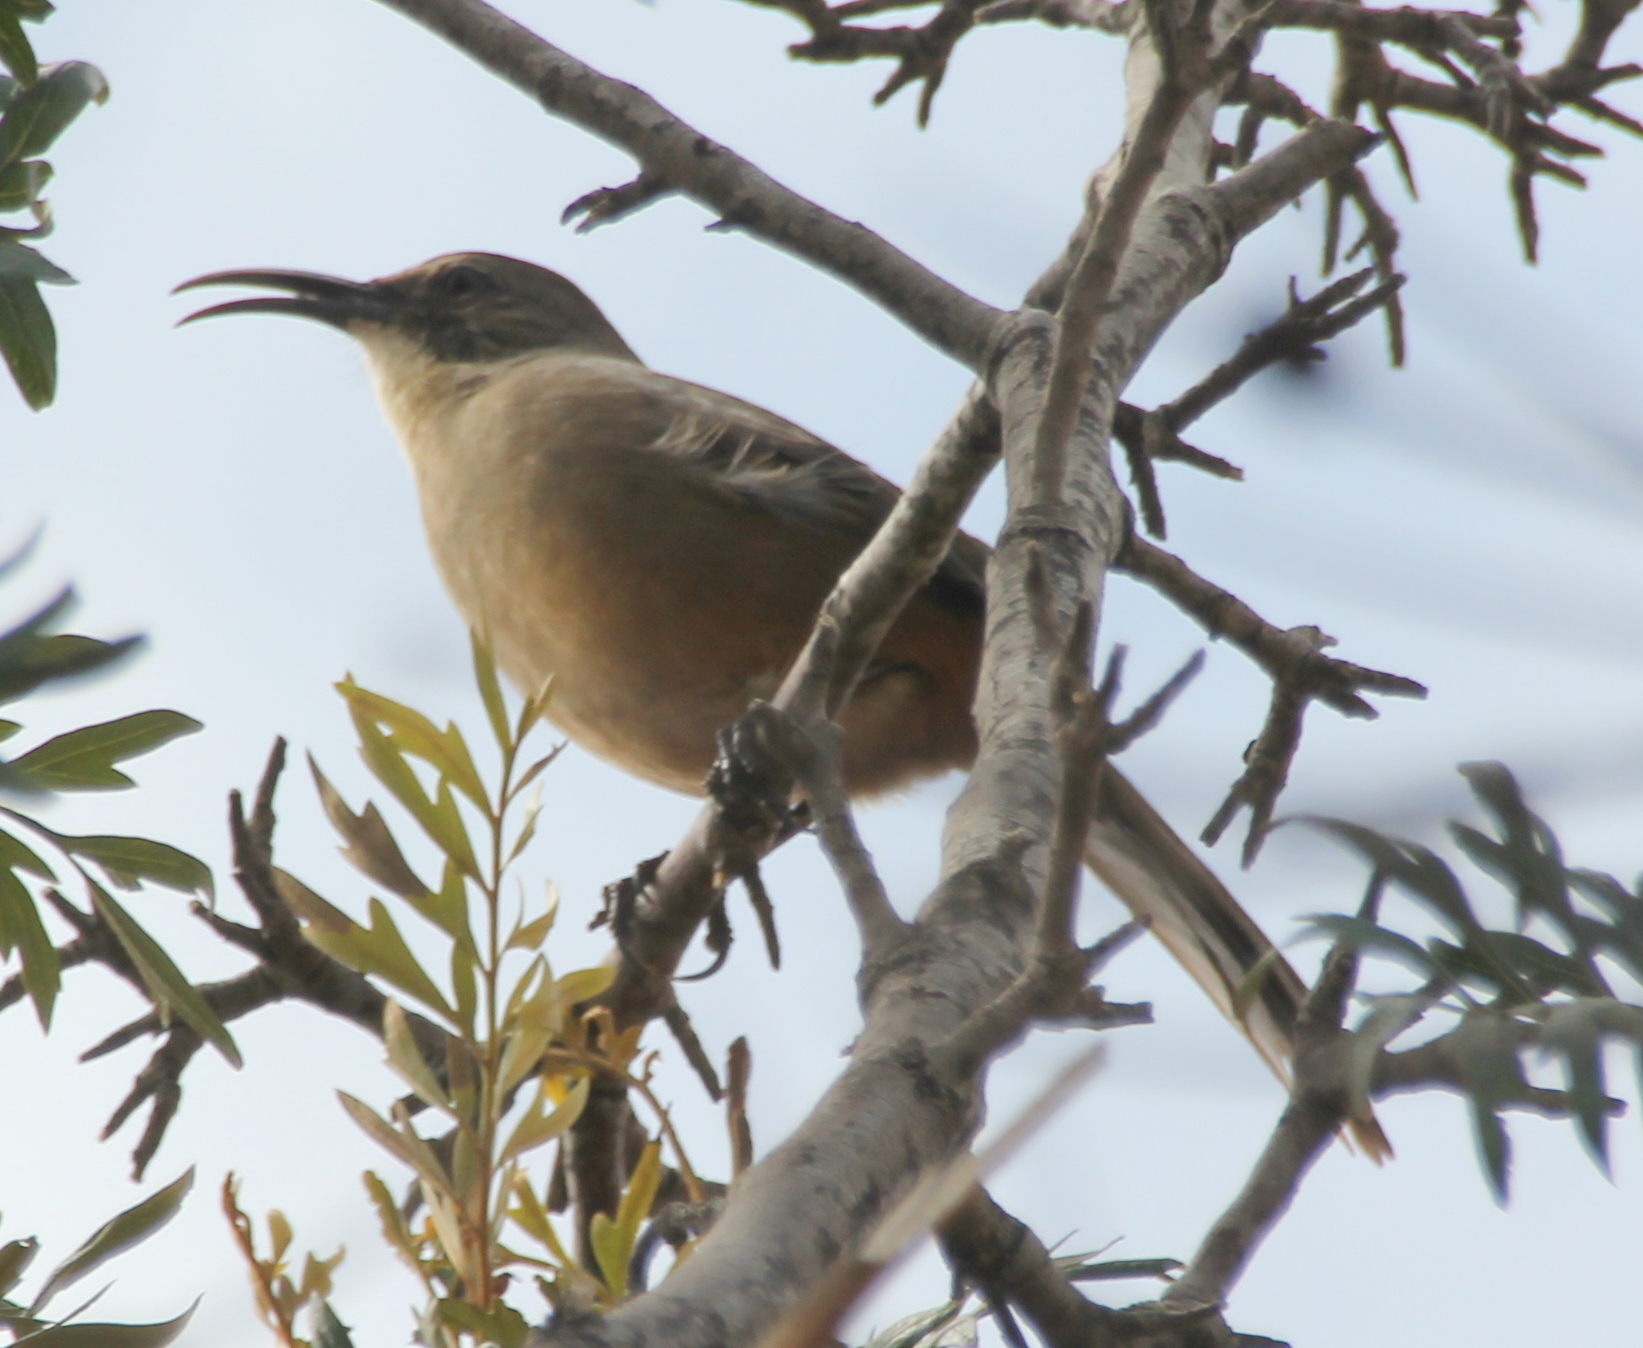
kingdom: Animalia
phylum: Chordata
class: Aves
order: Passeriformes
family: Mimidae
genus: Toxostoma
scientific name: Toxostoma redivivum
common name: California thrasher
